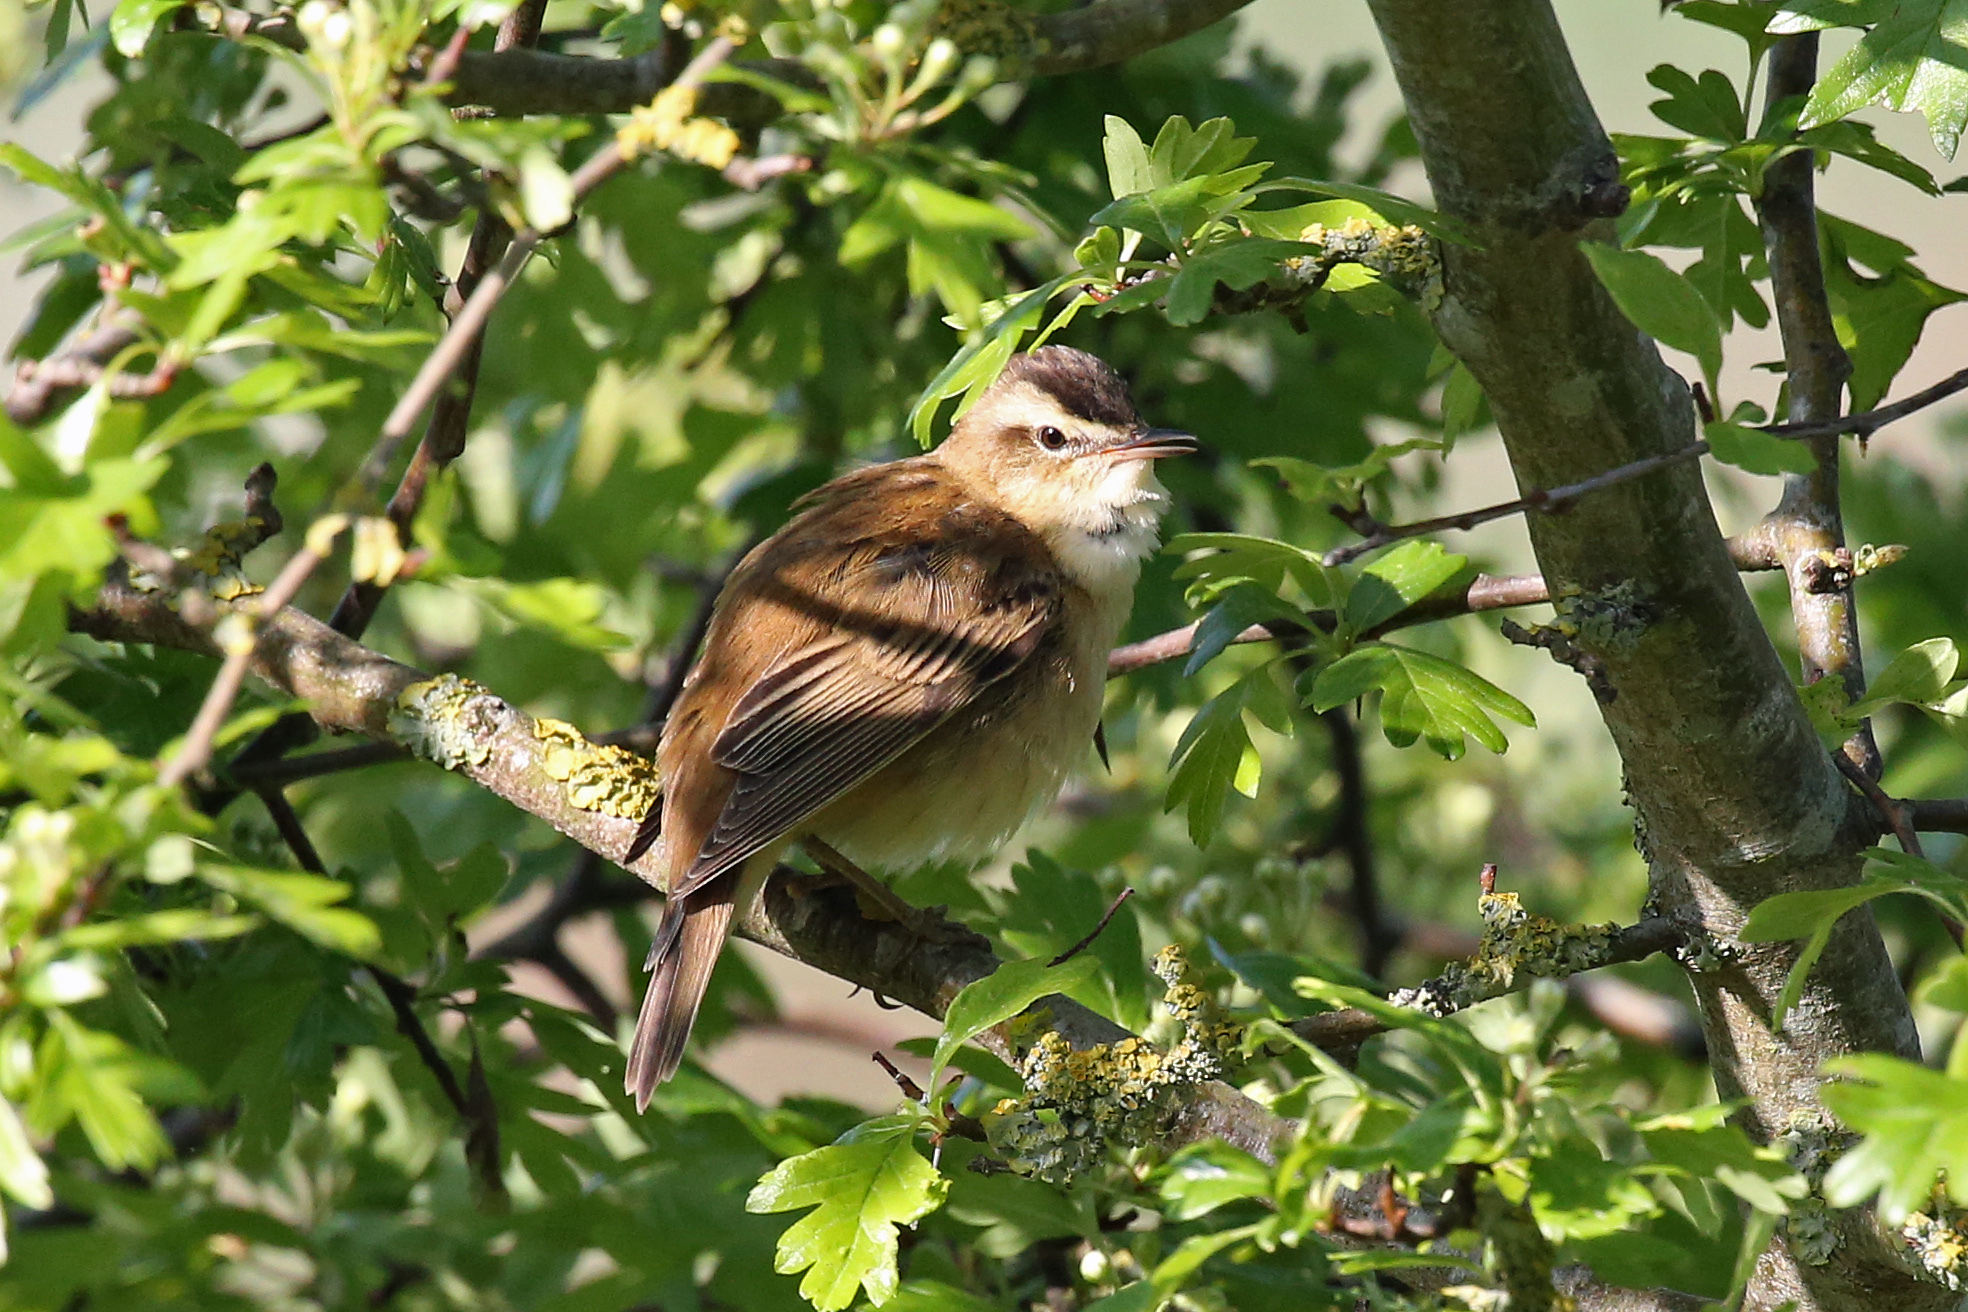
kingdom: Animalia
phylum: Chordata
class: Aves
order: Passeriformes
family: Acrocephalidae
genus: Acrocephalus
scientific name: Acrocephalus schoenobaenus
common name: Sedge warbler
